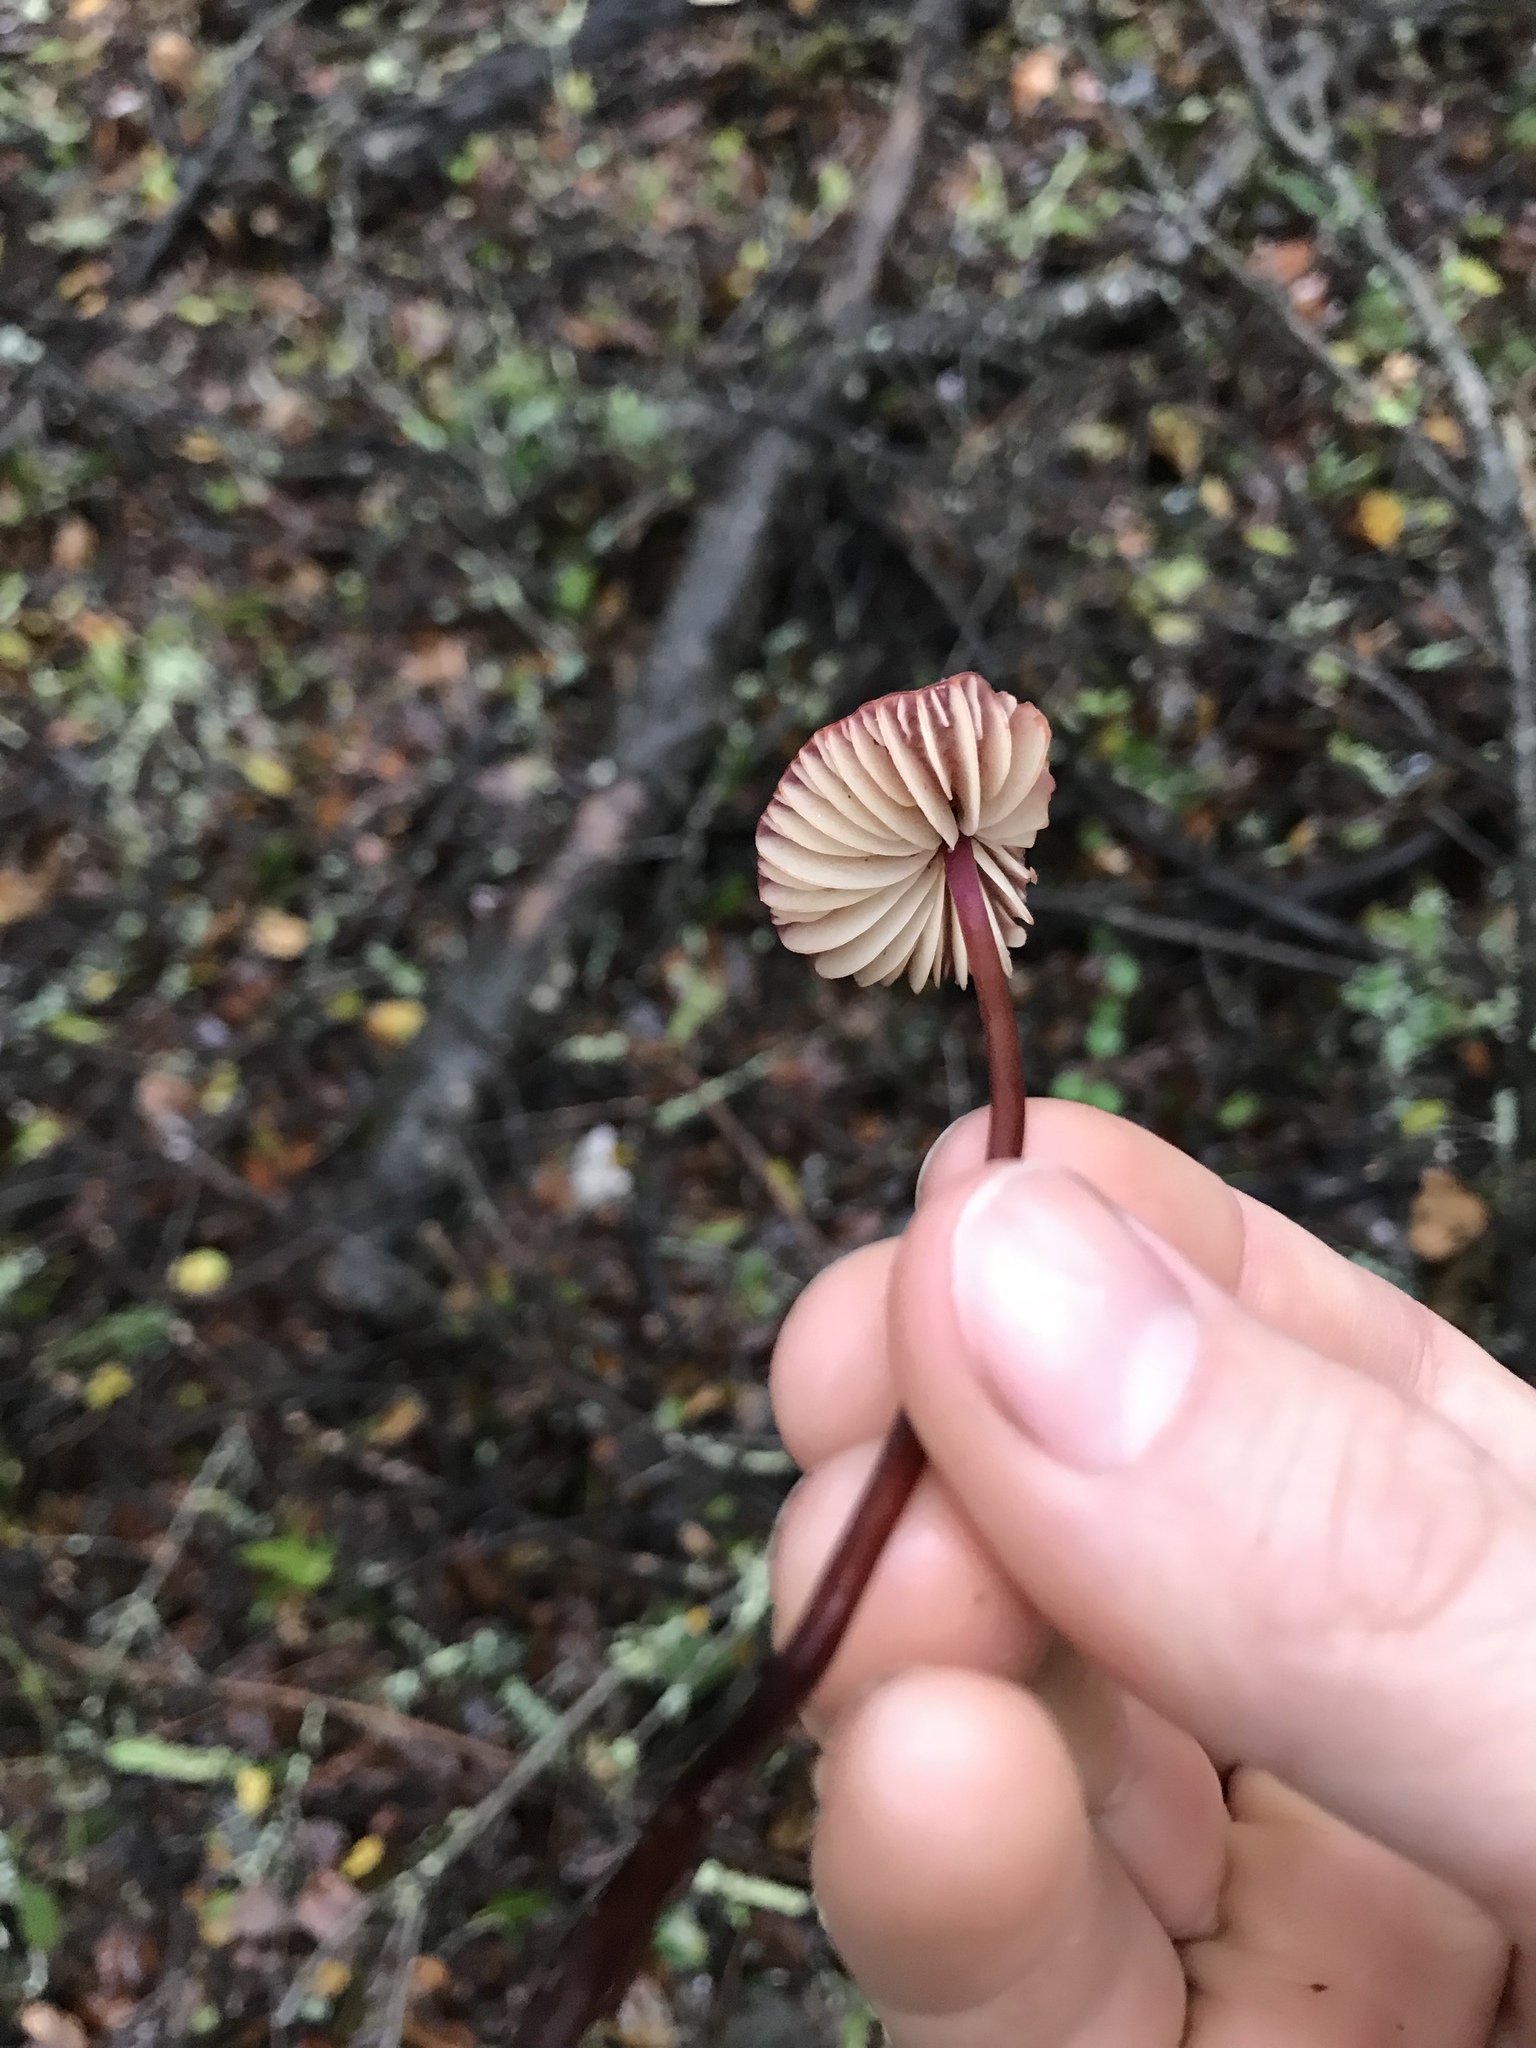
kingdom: Fungi
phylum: Basidiomycota
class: Agaricomycetes
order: Agaricales
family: Marasmiaceae
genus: Marasmius
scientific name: Marasmius plicatulus
